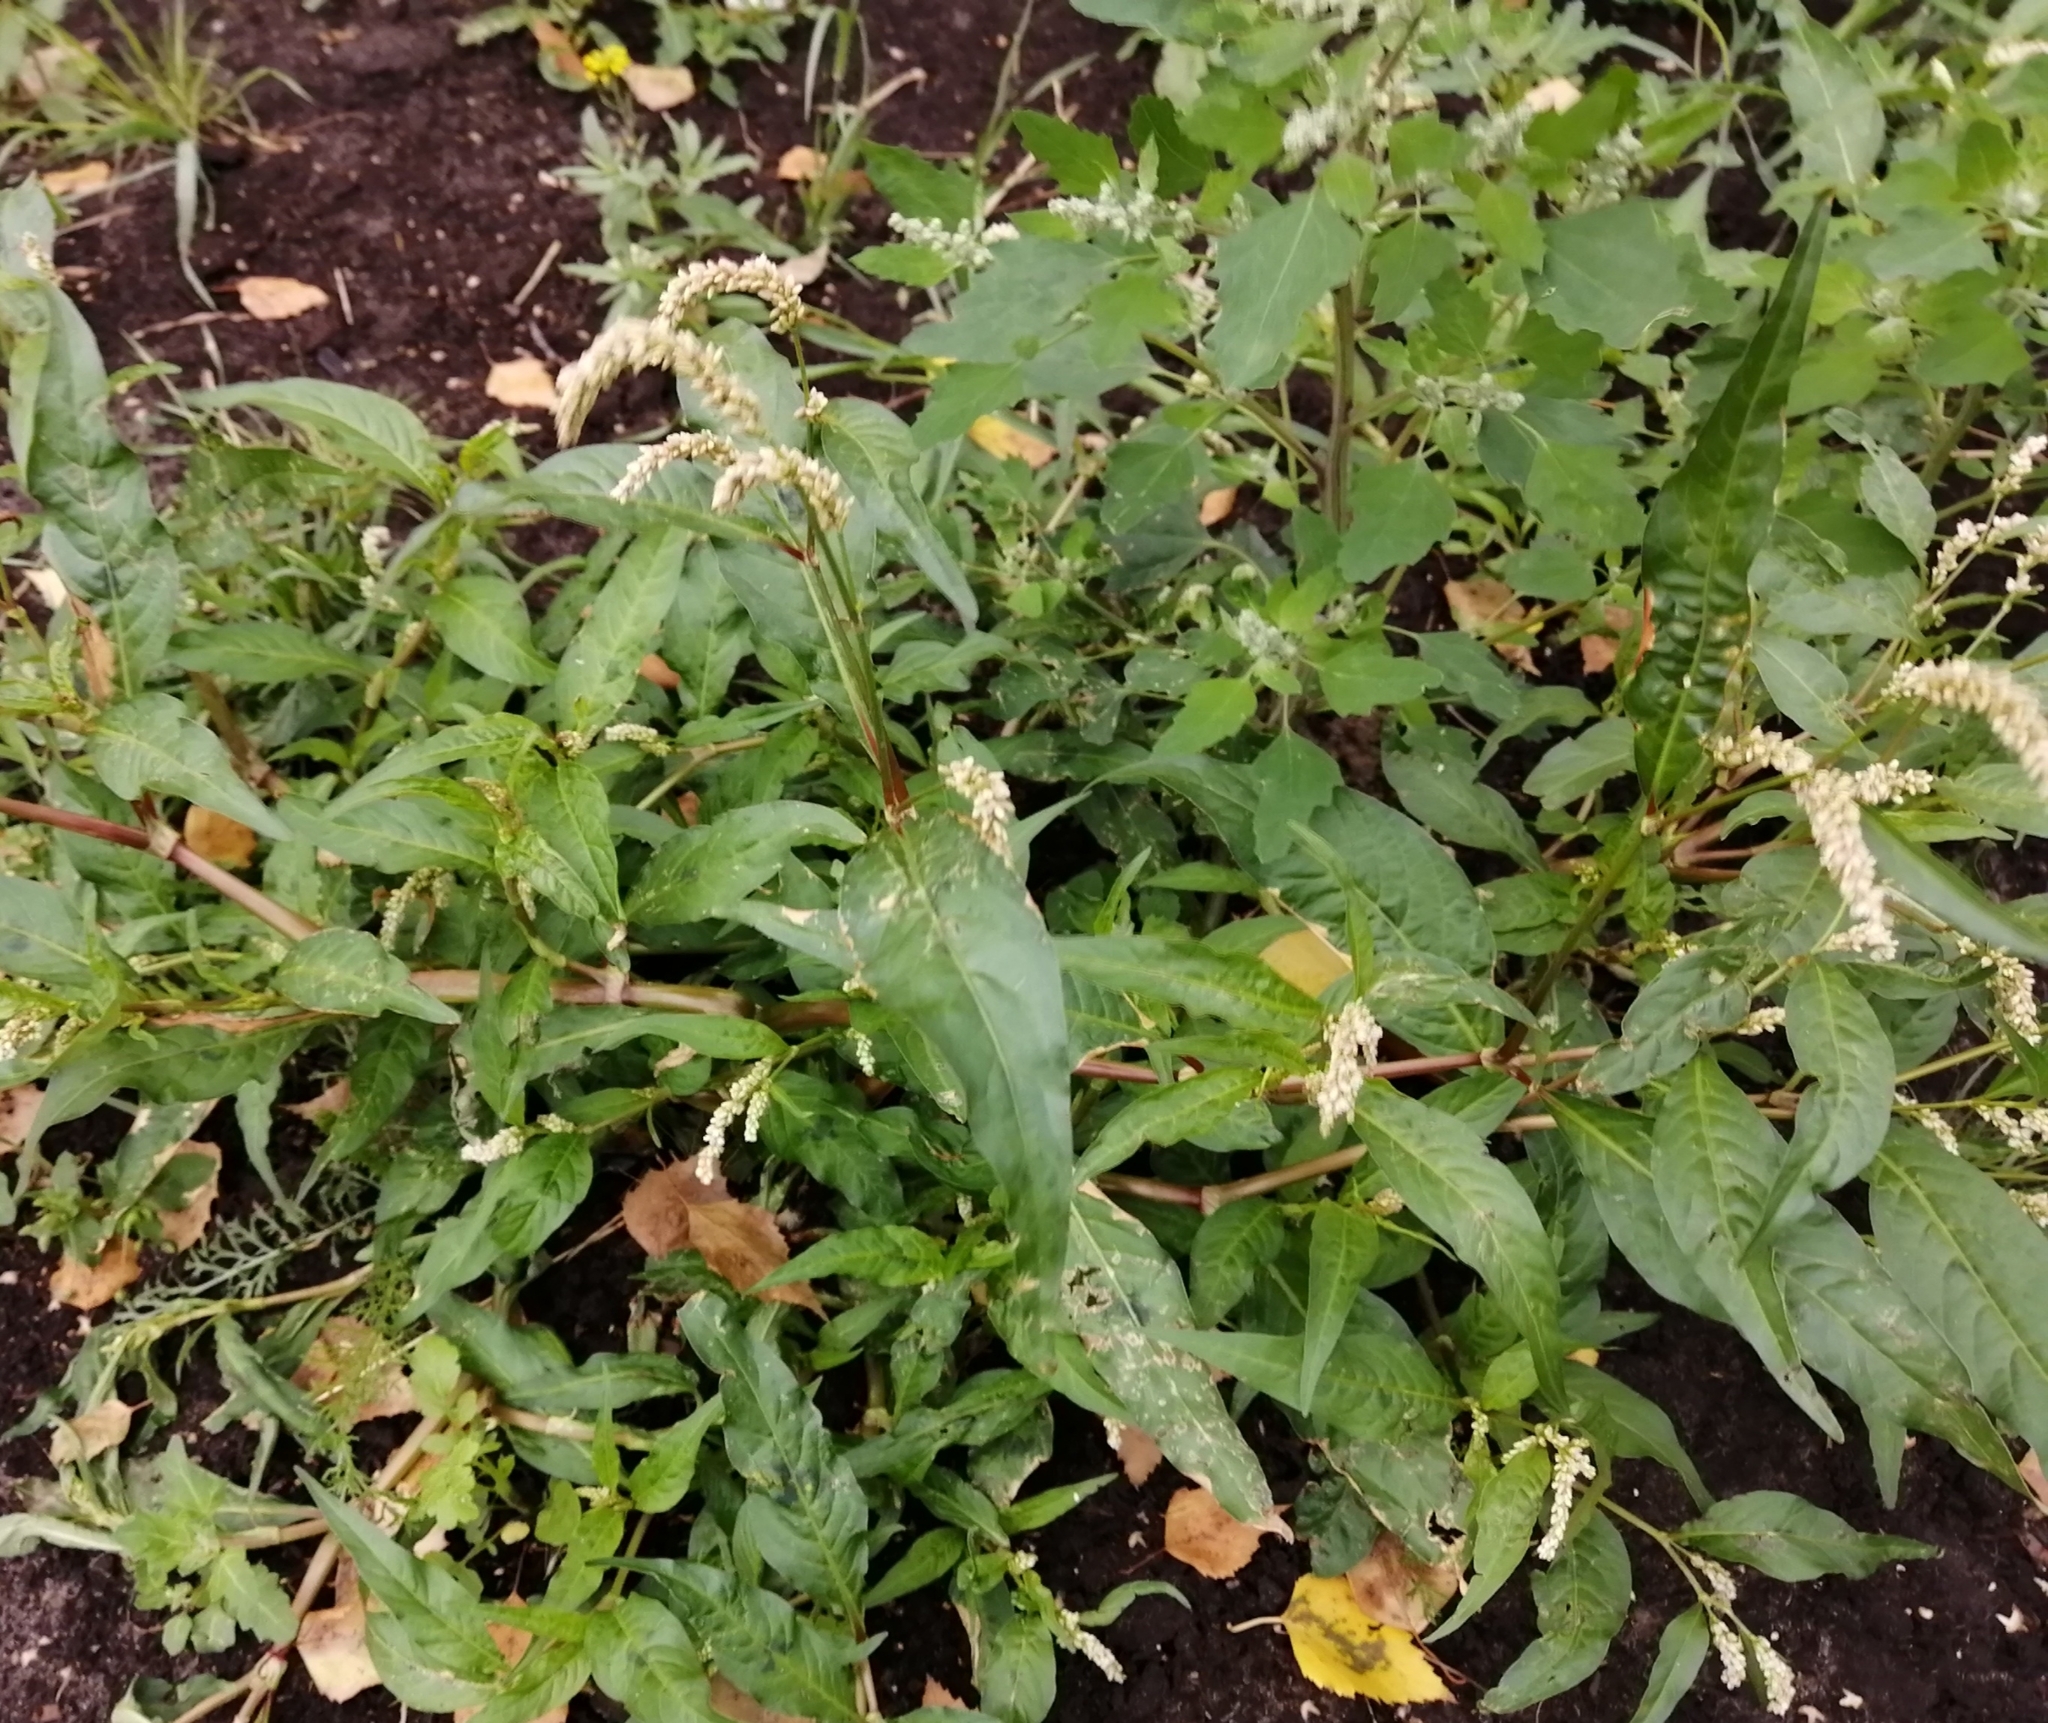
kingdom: Plantae
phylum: Tracheophyta
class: Magnoliopsida
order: Caryophyllales
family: Polygonaceae
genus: Persicaria
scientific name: Persicaria lapathifolia
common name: Curlytop knotweed
